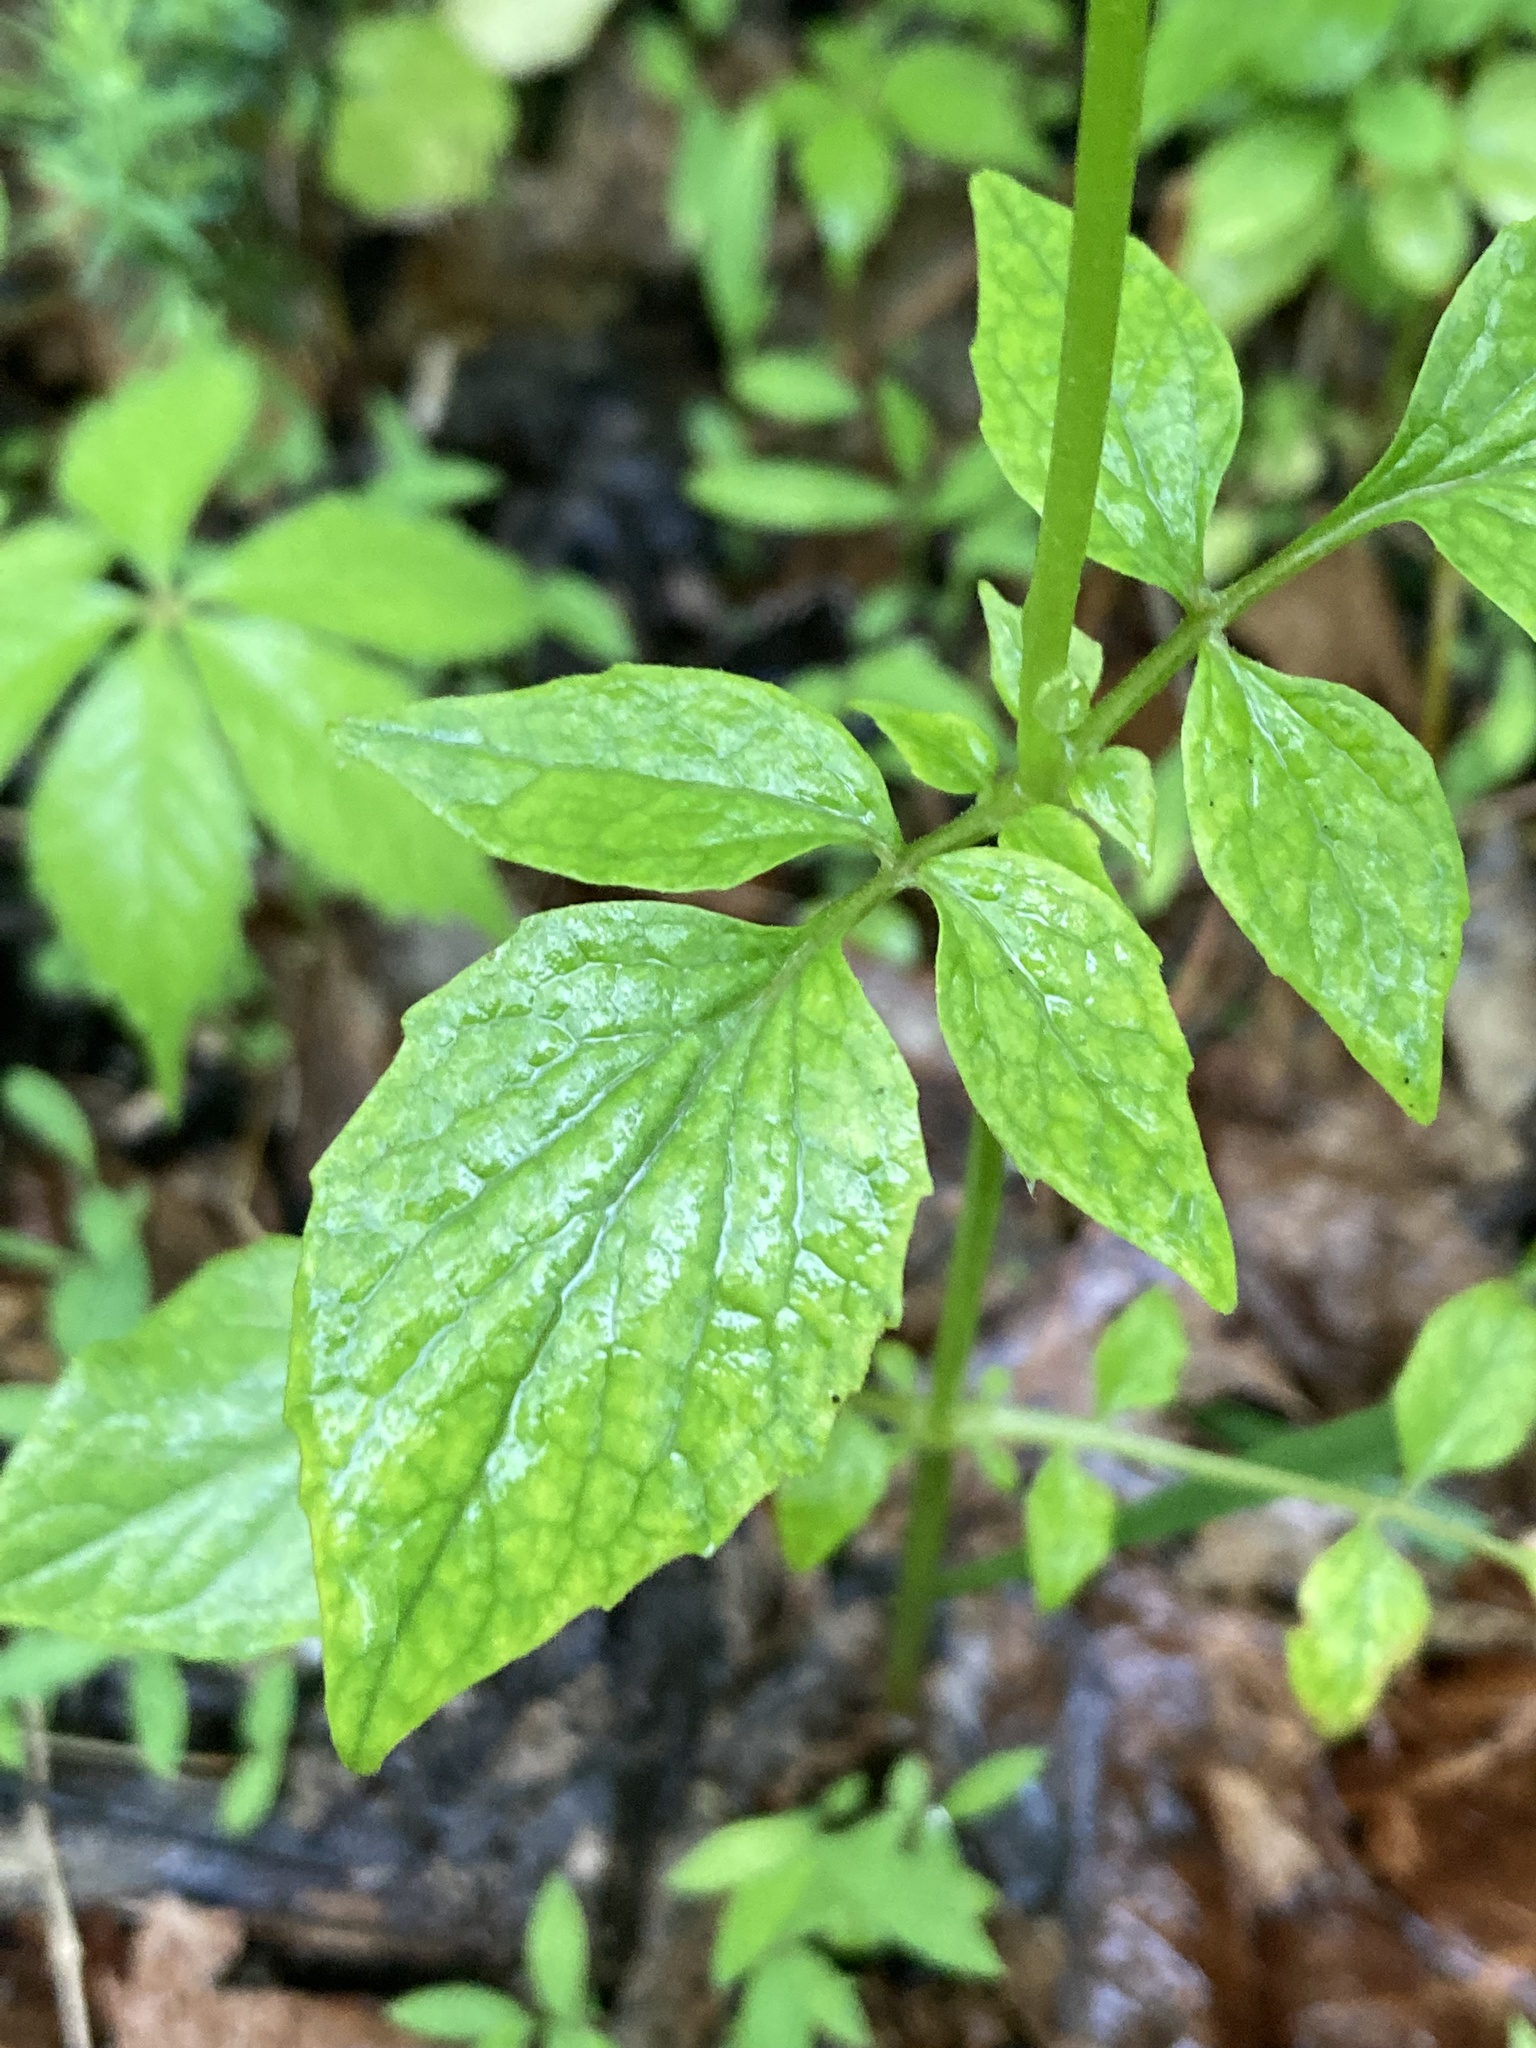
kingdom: Plantae
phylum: Tracheophyta
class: Magnoliopsida
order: Dipsacales
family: Caprifoliaceae
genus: Valeriana
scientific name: Valeriana pauciflora
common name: Long-tube valeriana
